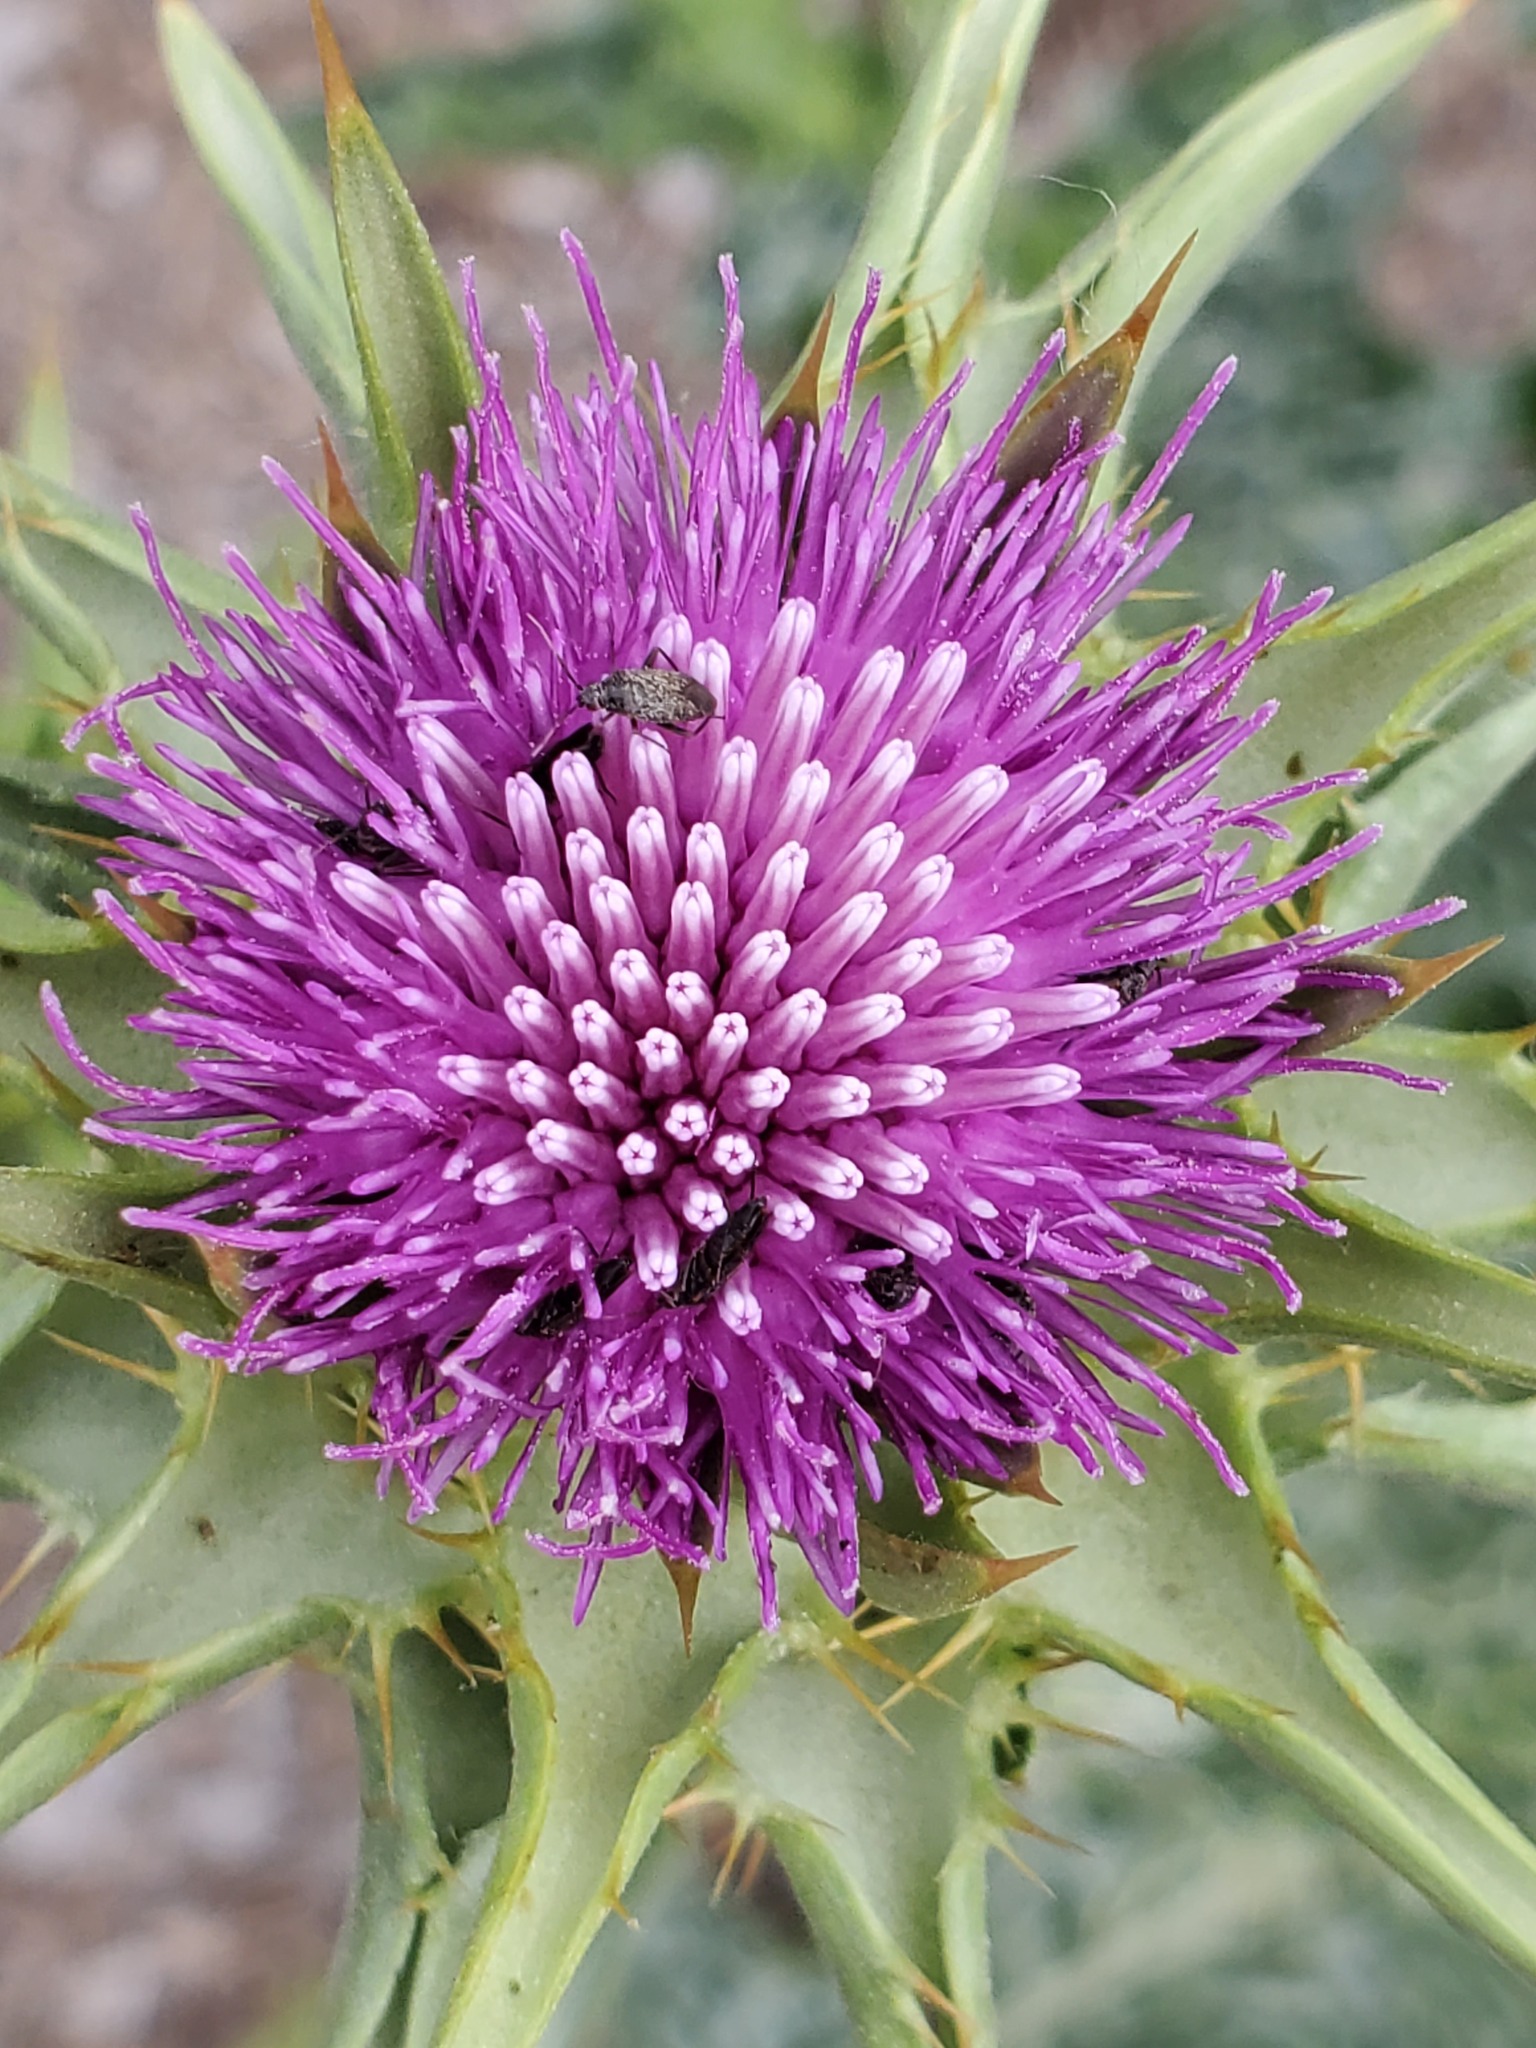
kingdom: Plantae
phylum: Tracheophyta
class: Magnoliopsida
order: Asterales
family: Asteraceae
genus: Silybum
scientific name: Silybum marianum
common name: Milk thistle
